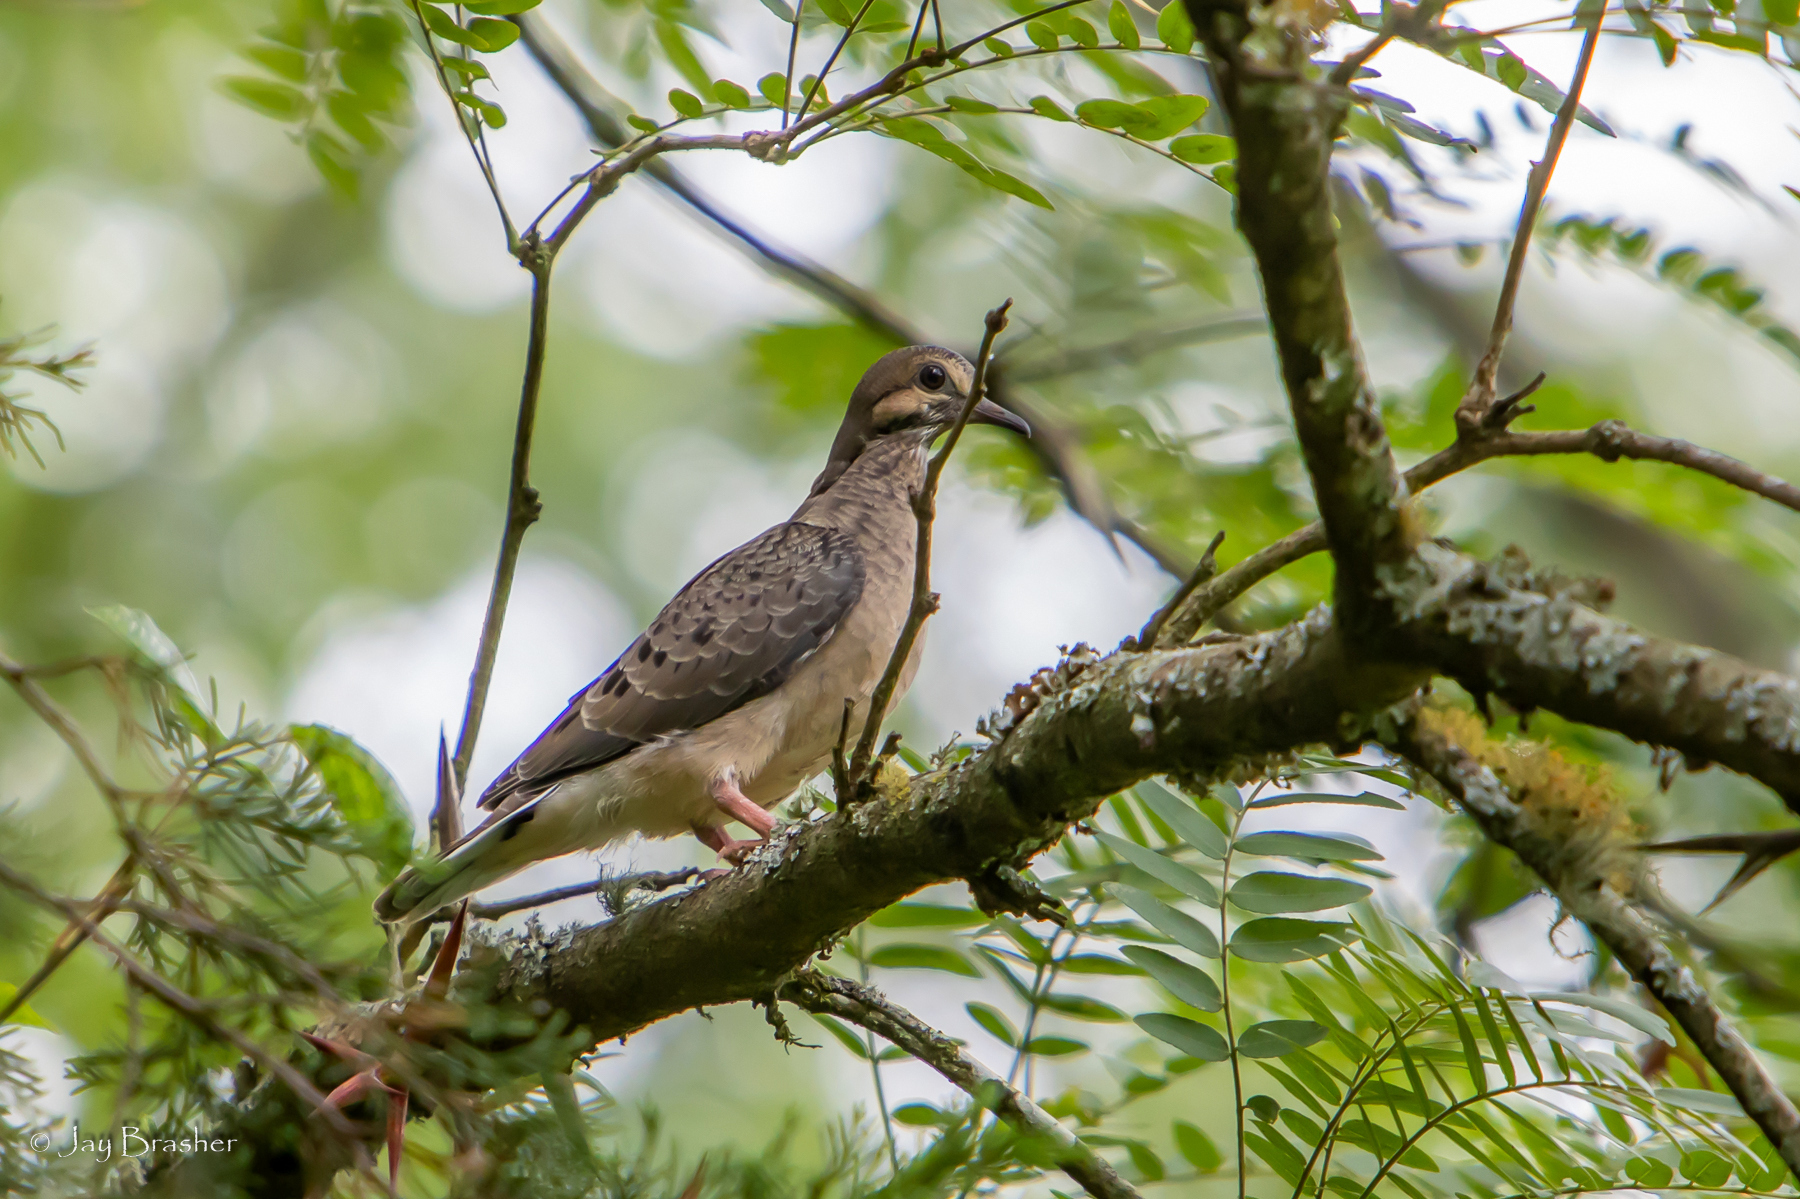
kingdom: Animalia
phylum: Chordata
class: Aves
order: Columbiformes
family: Columbidae
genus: Zenaida
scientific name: Zenaida macroura
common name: Mourning dove
